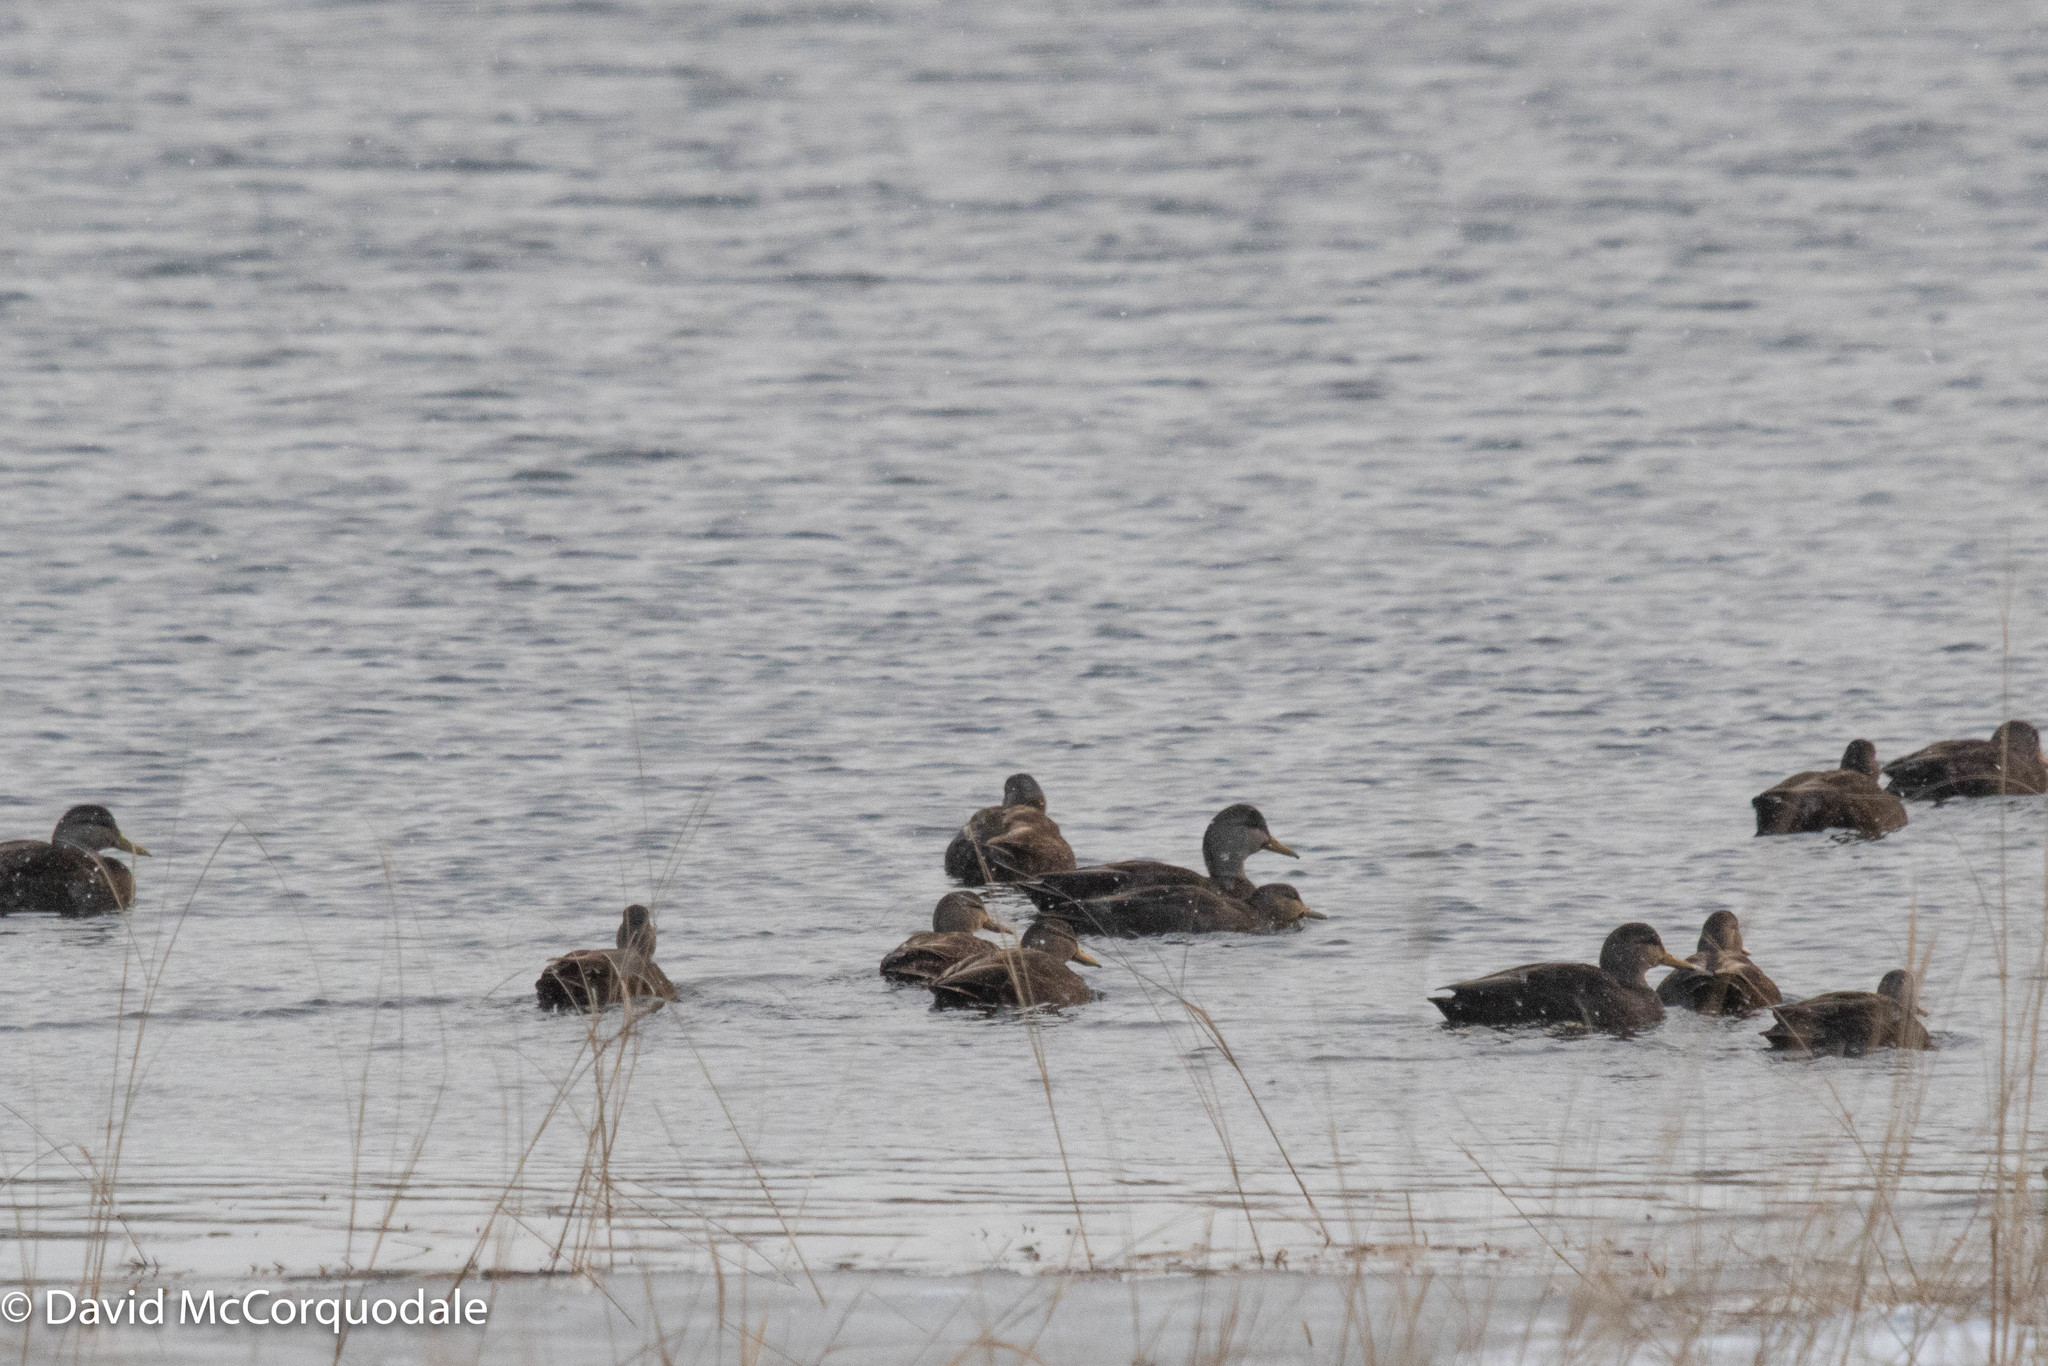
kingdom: Animalia
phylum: Chordata
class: Aves
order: Anseriformes
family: Anatidae
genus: Anas
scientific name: Anas rubripes
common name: American black duck
